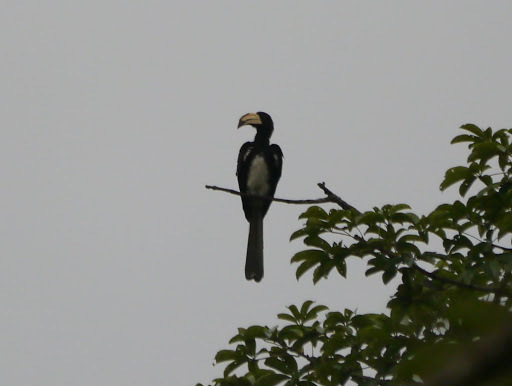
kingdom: Animalia
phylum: Chordata
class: Aves
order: Bucerotiformes
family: Bucerotidae
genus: Lophoceros
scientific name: Lophoceros fasciatus
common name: African pied hornbill
